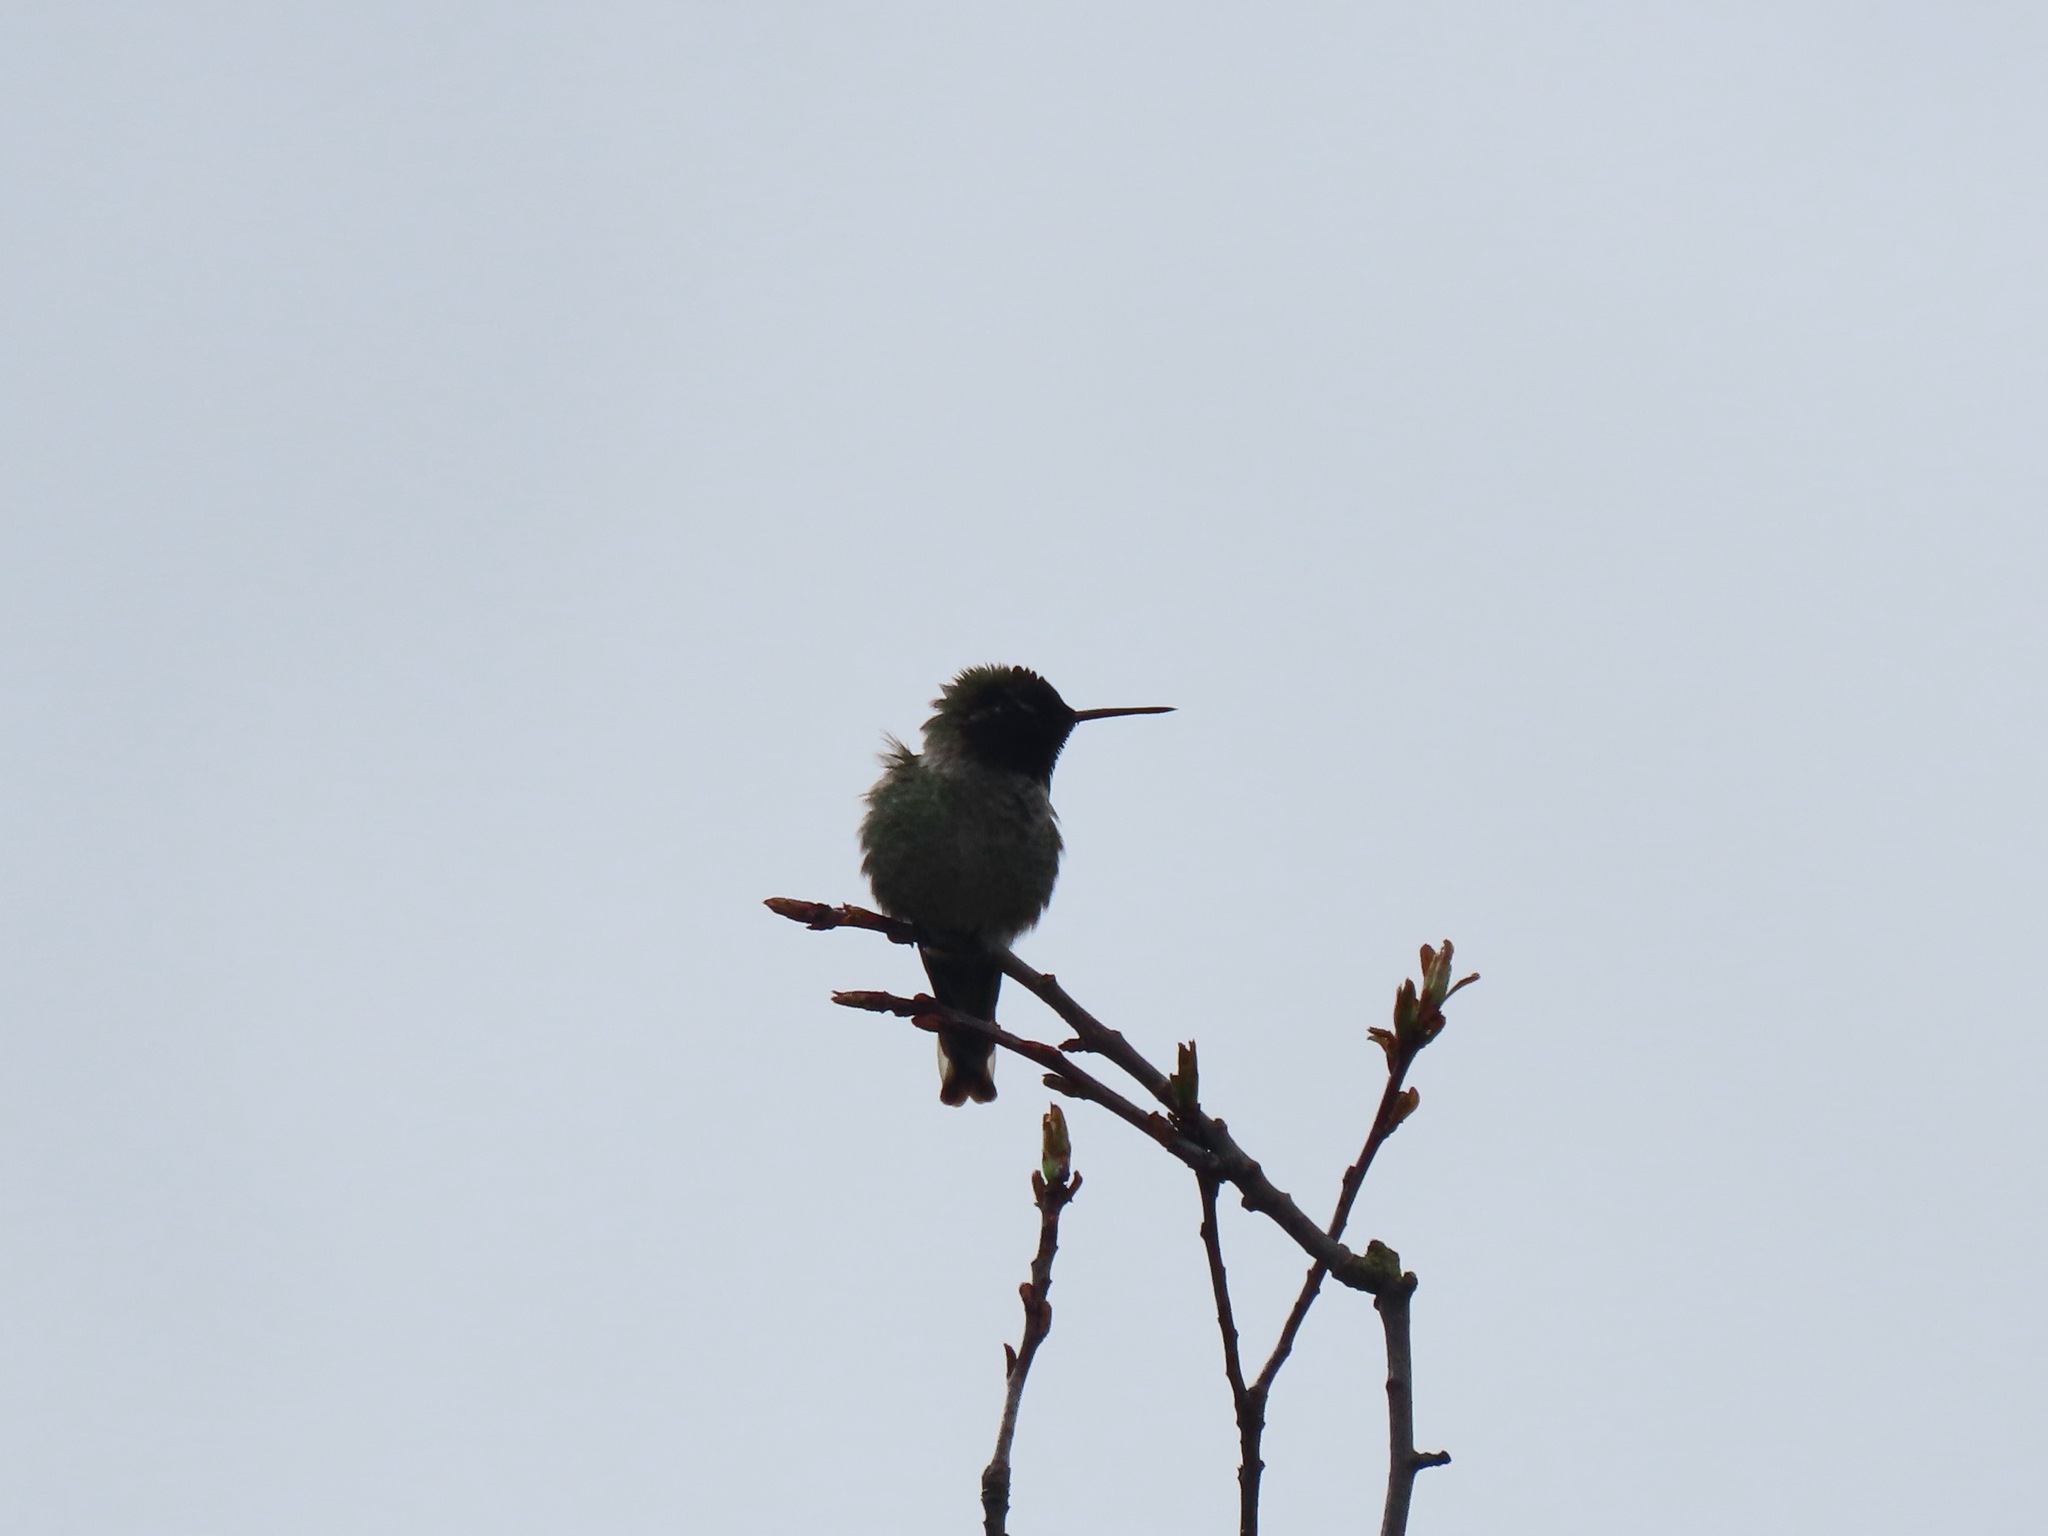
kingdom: Animalia
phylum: Chordata
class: Aves
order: Apodiformes
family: Trochilidae
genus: Calypte
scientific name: Calypte anna
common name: Anna's hummingbird
